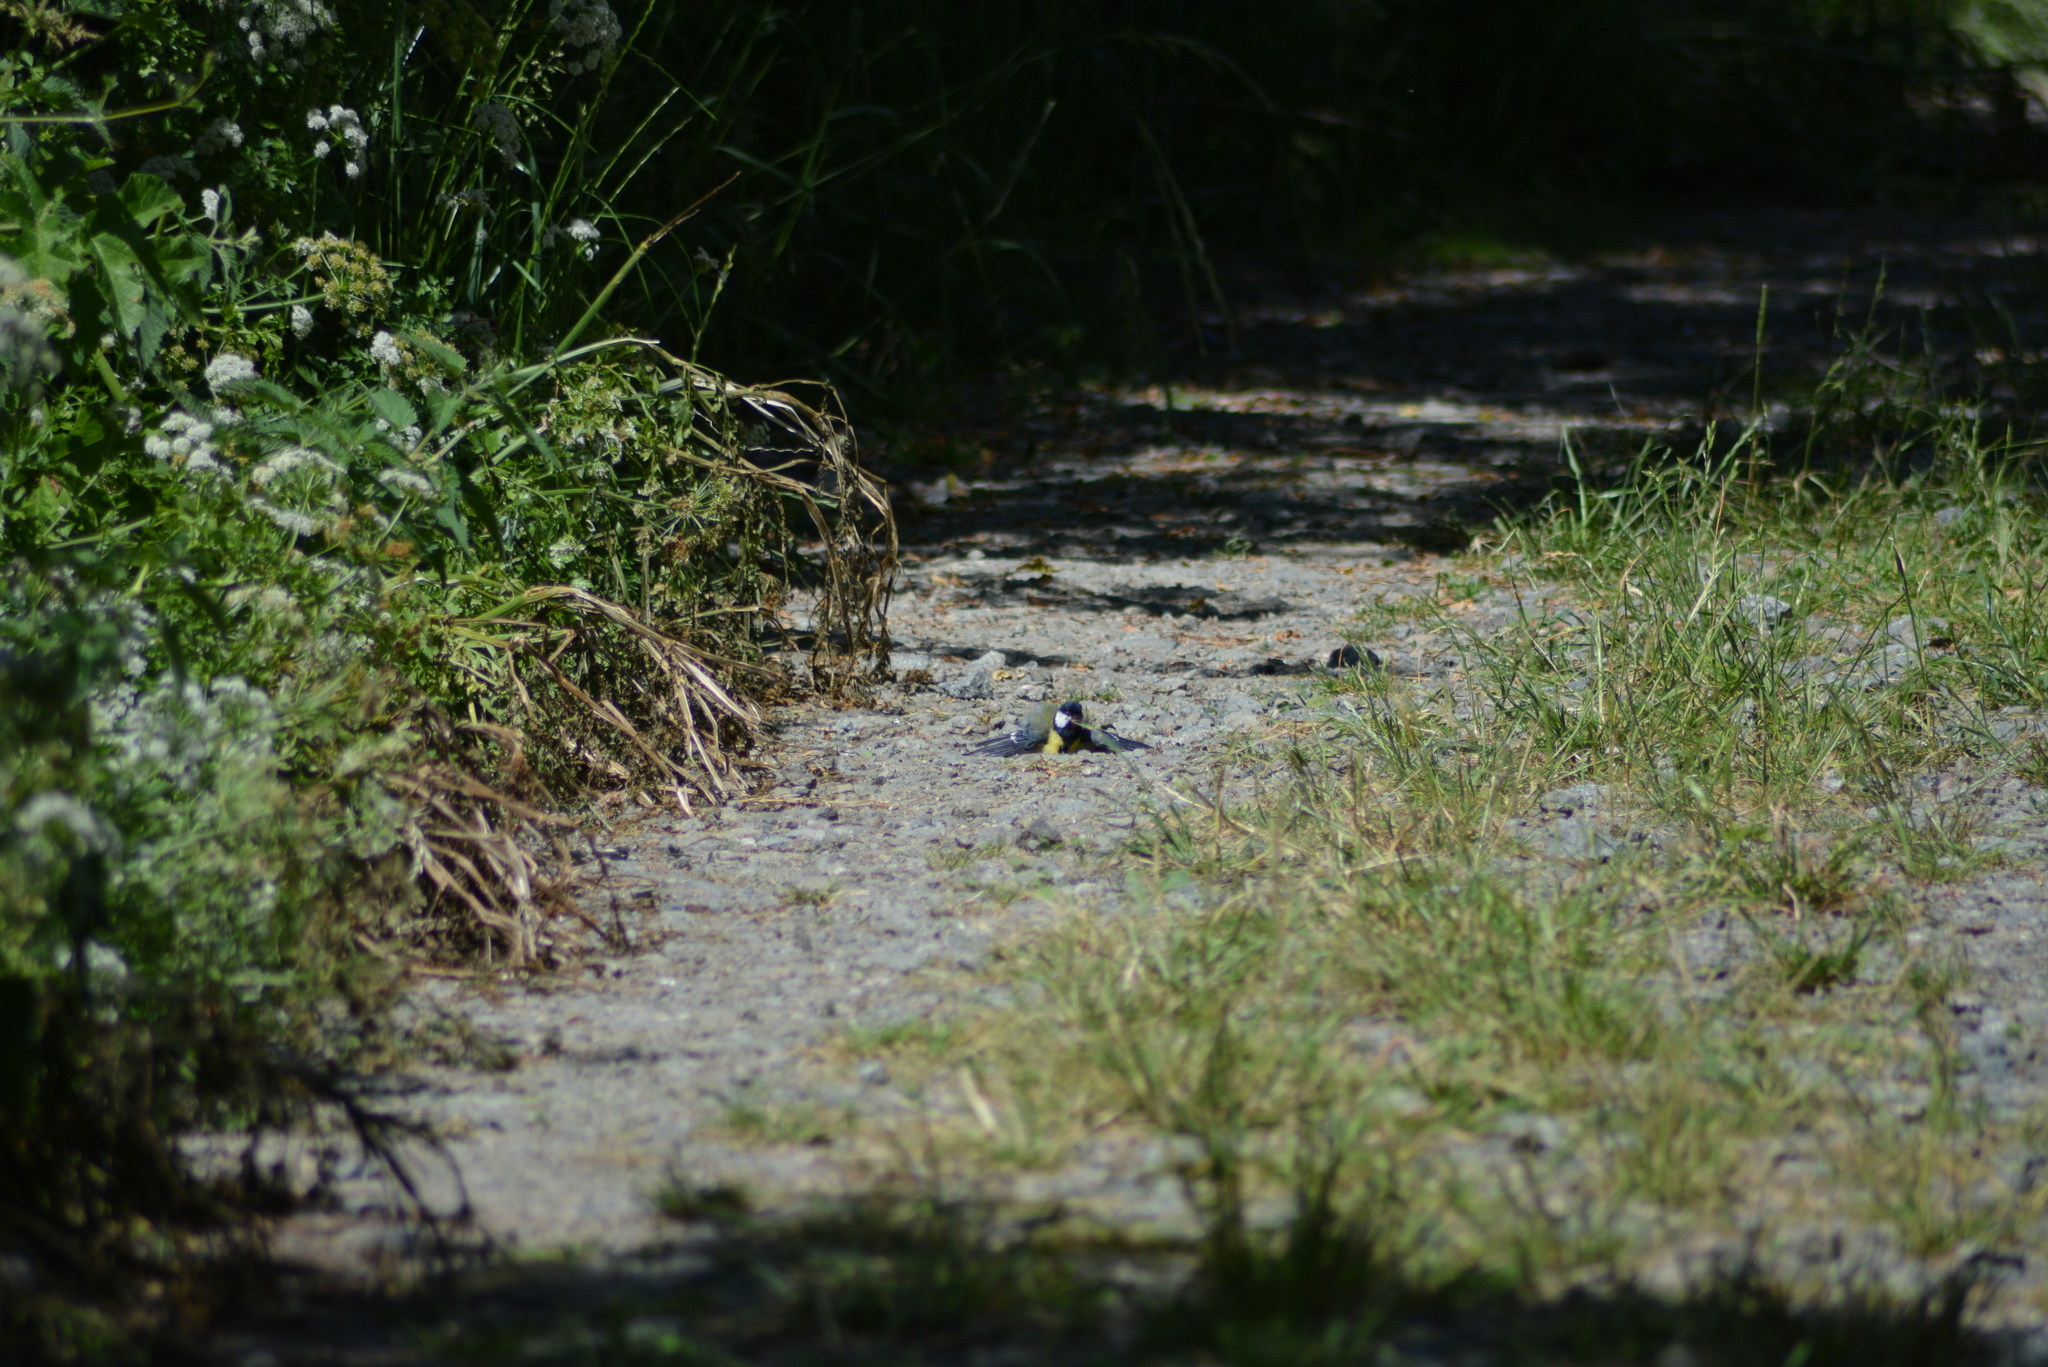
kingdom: Animalia
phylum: Chordata
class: Aves
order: Passeriformes
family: Paridae
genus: Parus
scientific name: Parus major
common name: Great tit
